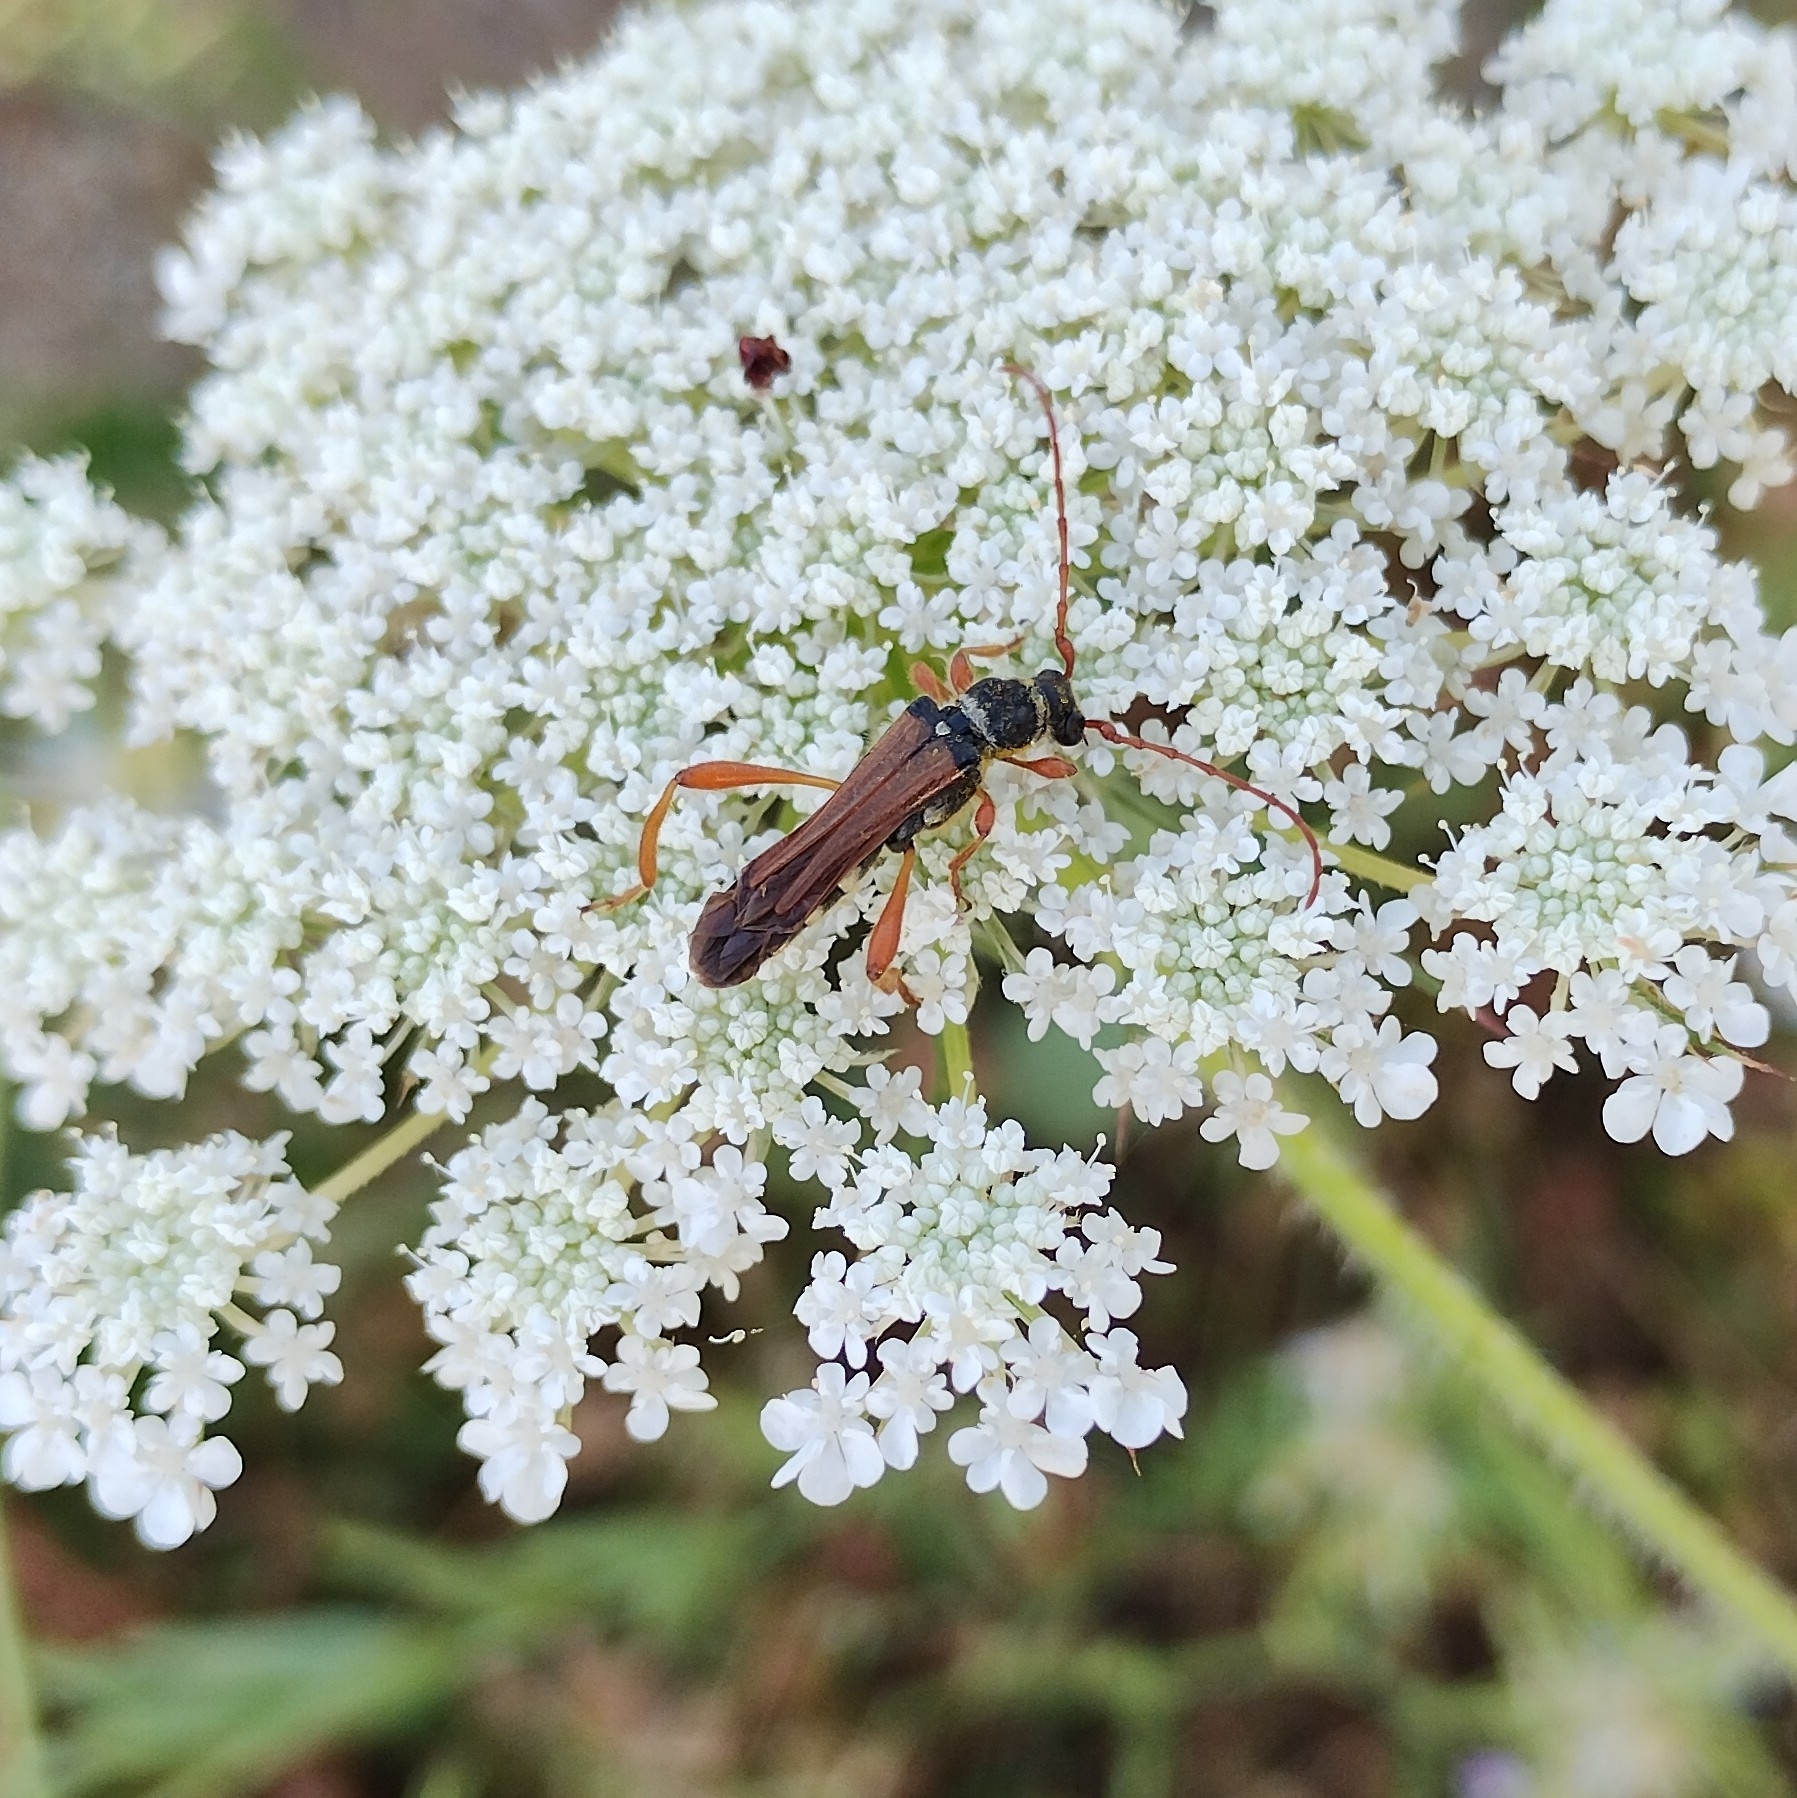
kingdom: Animalia
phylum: Arthropoda
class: Insecta
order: Coleoptera
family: Cerambycidae
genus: Stenopterus
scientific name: Stenopterus flavicornis
